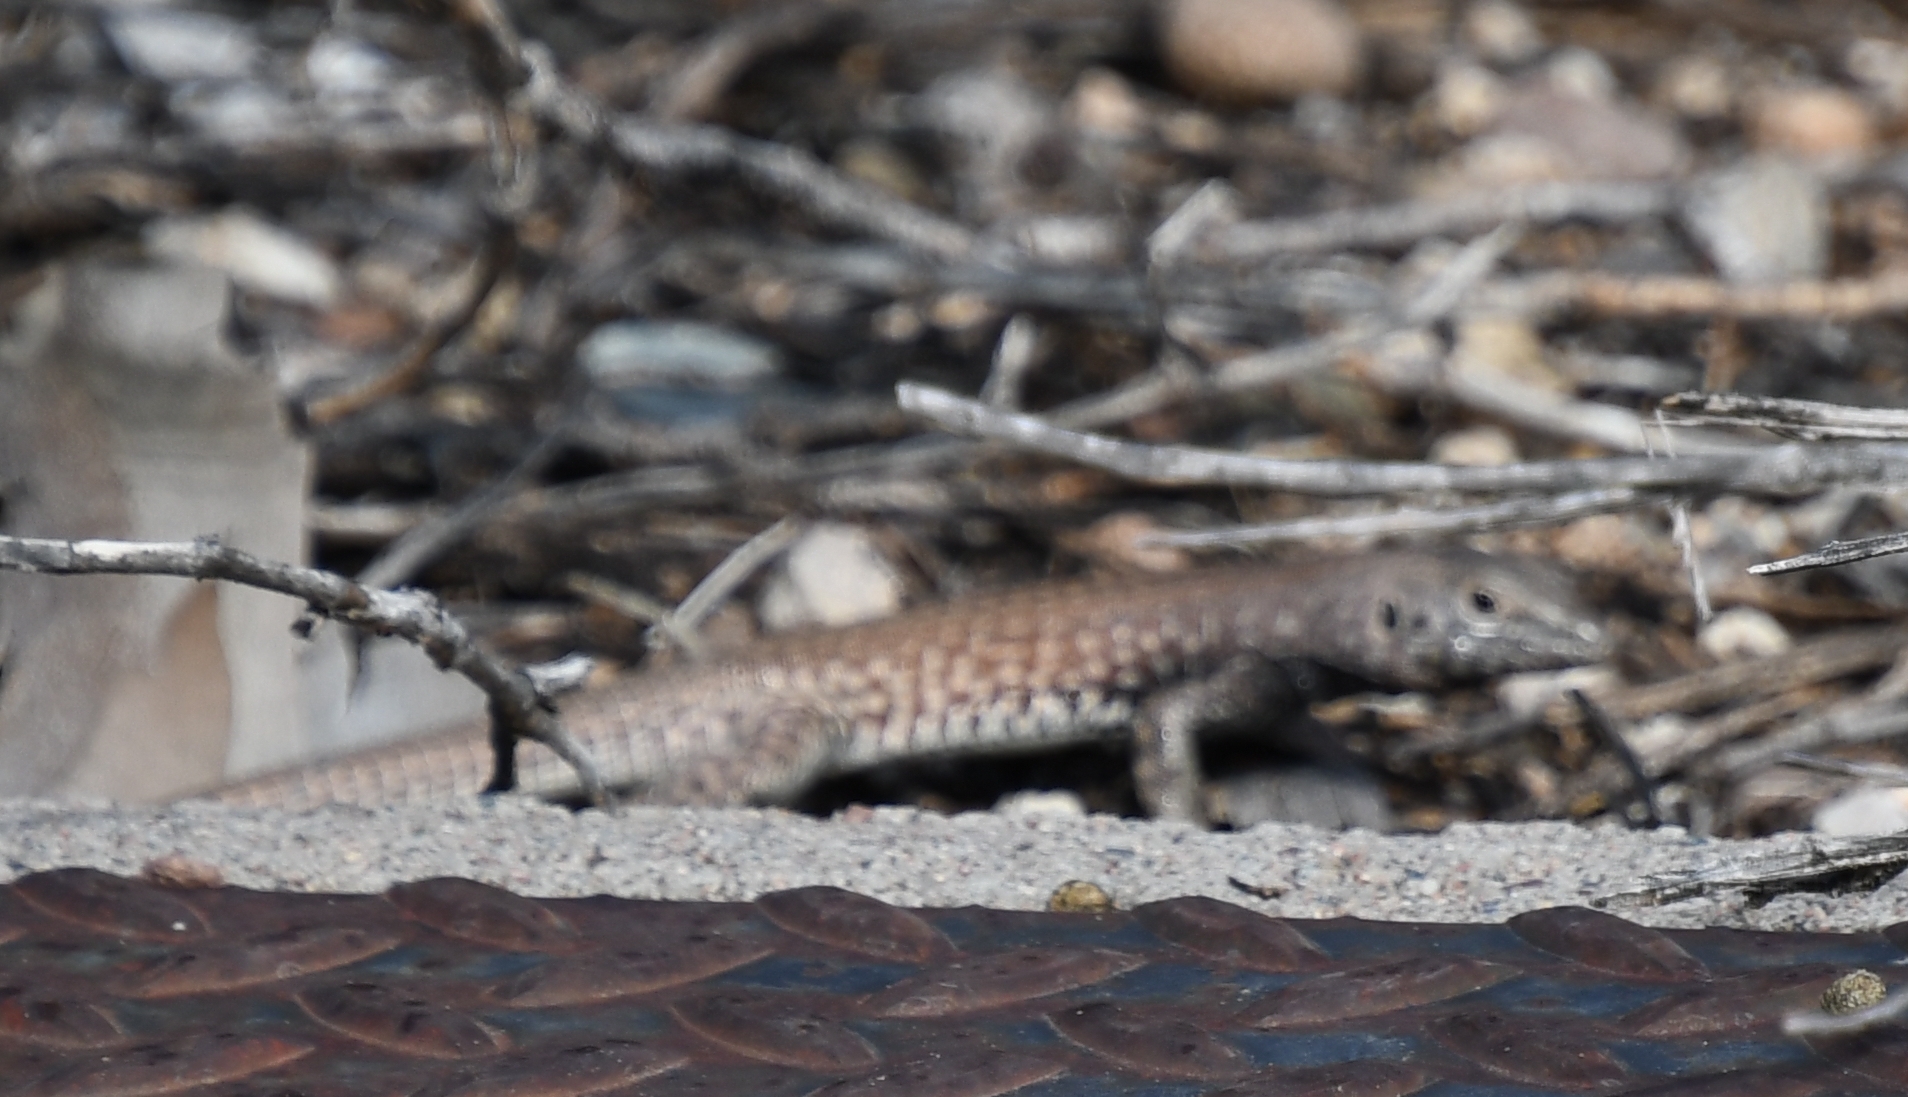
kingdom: Animalia
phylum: Chordata
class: Squamata
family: Teiidae
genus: Aspidoscelis
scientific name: Aspidoscelis tigris
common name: Tiger whiptail
